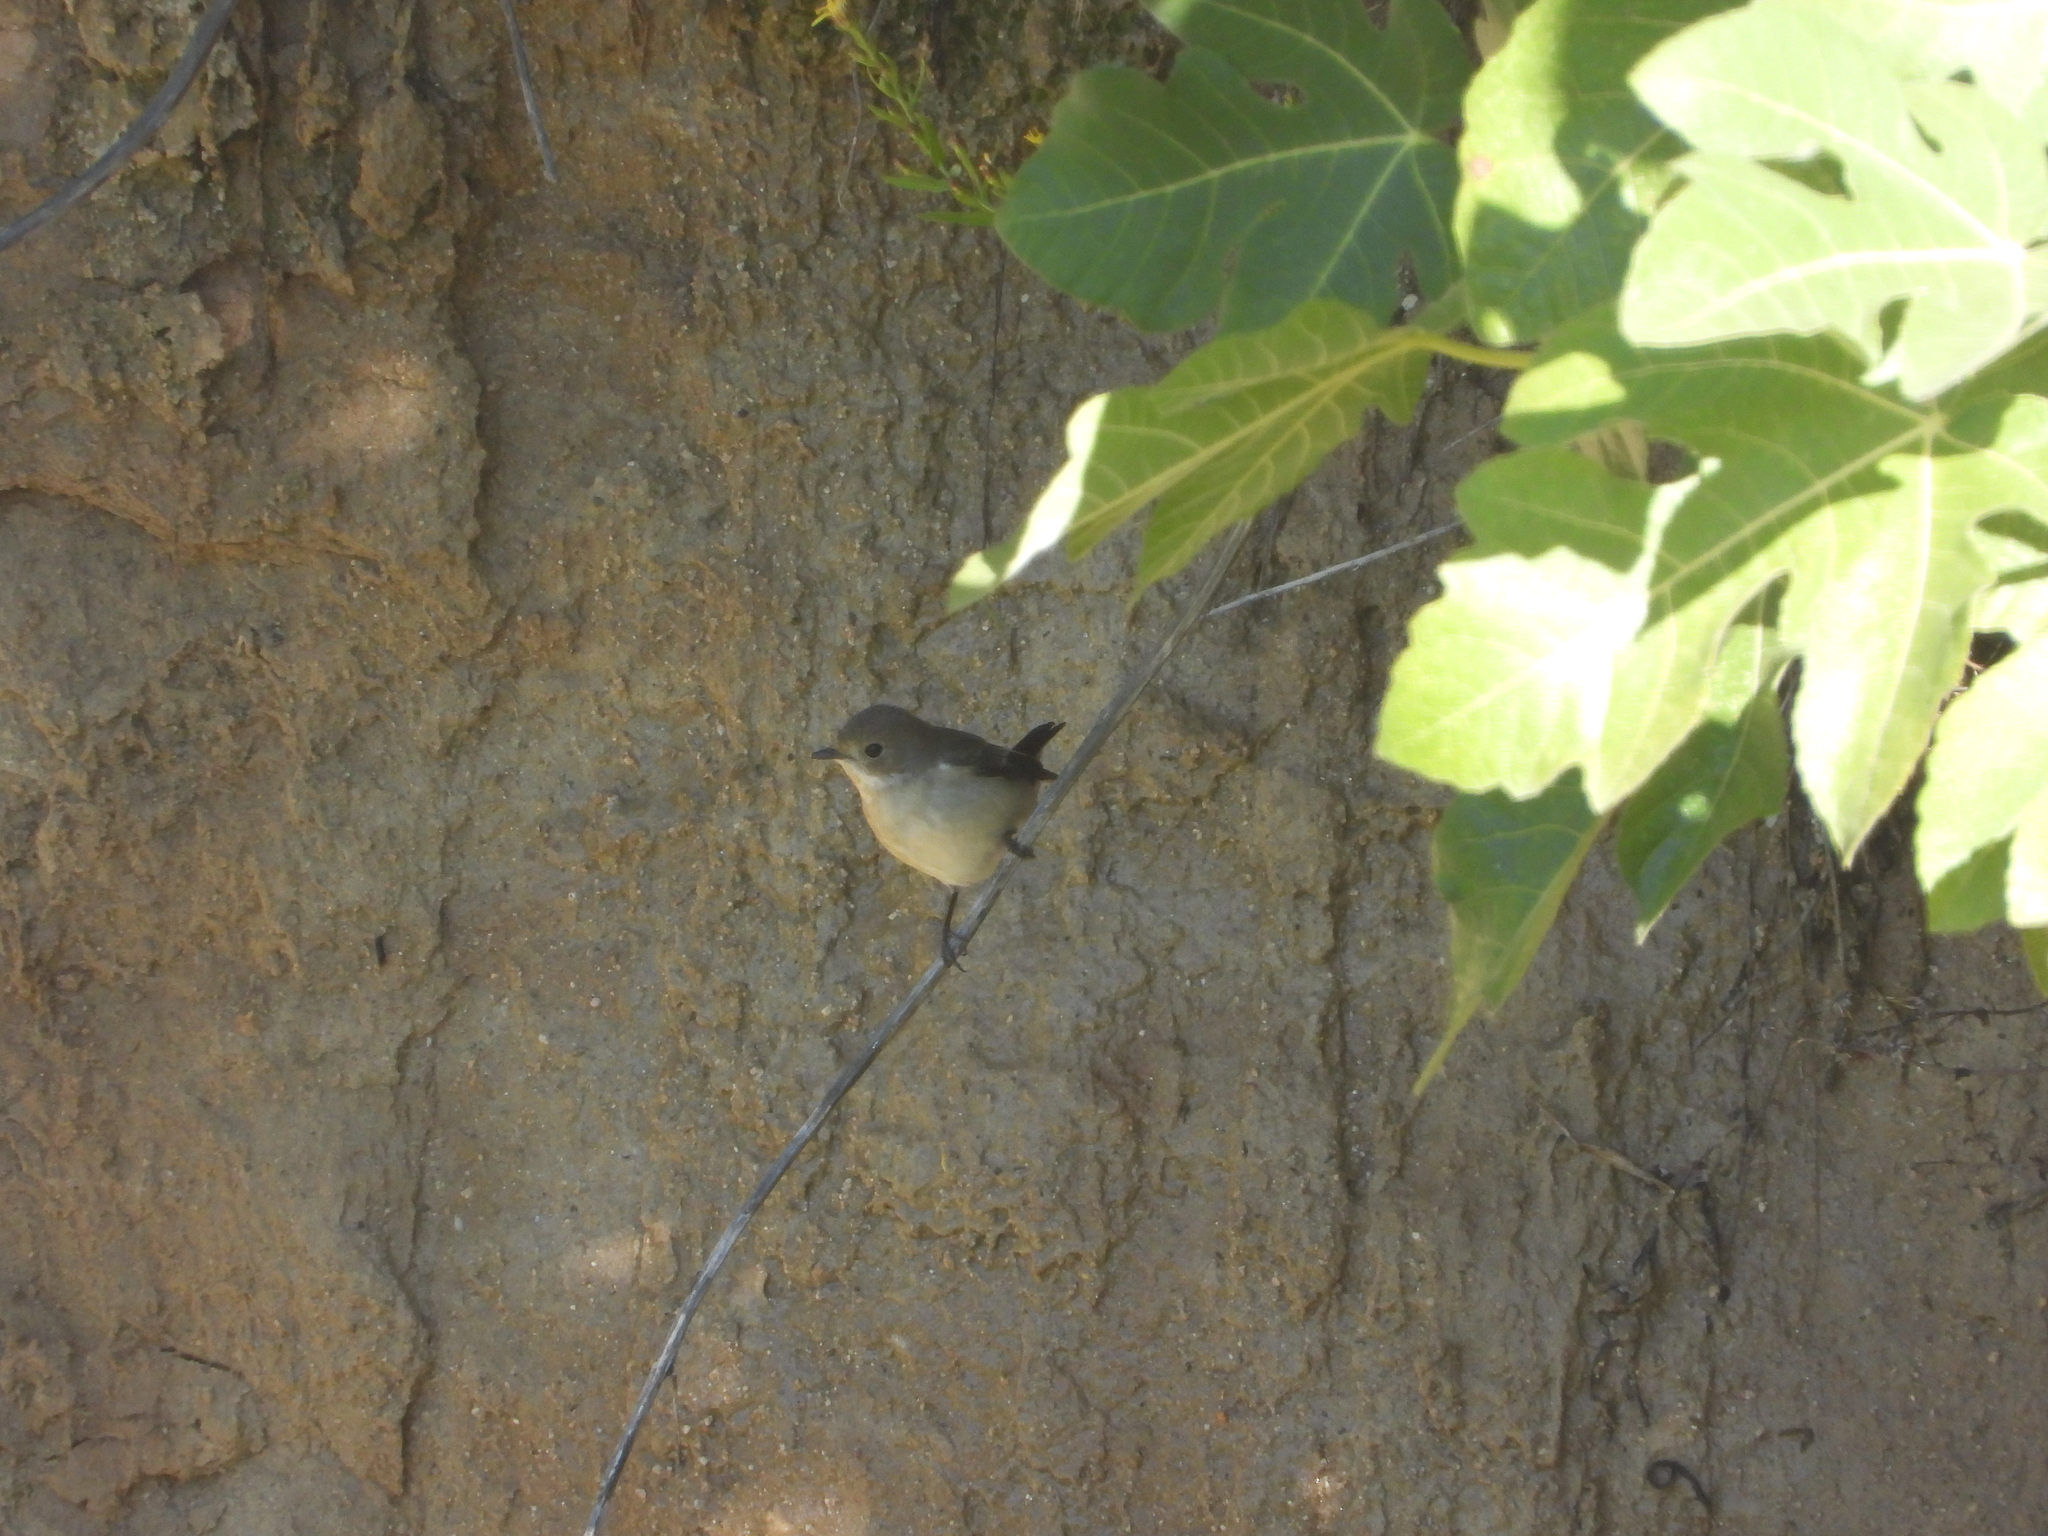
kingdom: Animalia
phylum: Chordata
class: Aves
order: Passeriformes
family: Muscicapidae
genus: Ficedula
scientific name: Ficedula hypoleuca
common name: European pied flycatcher
